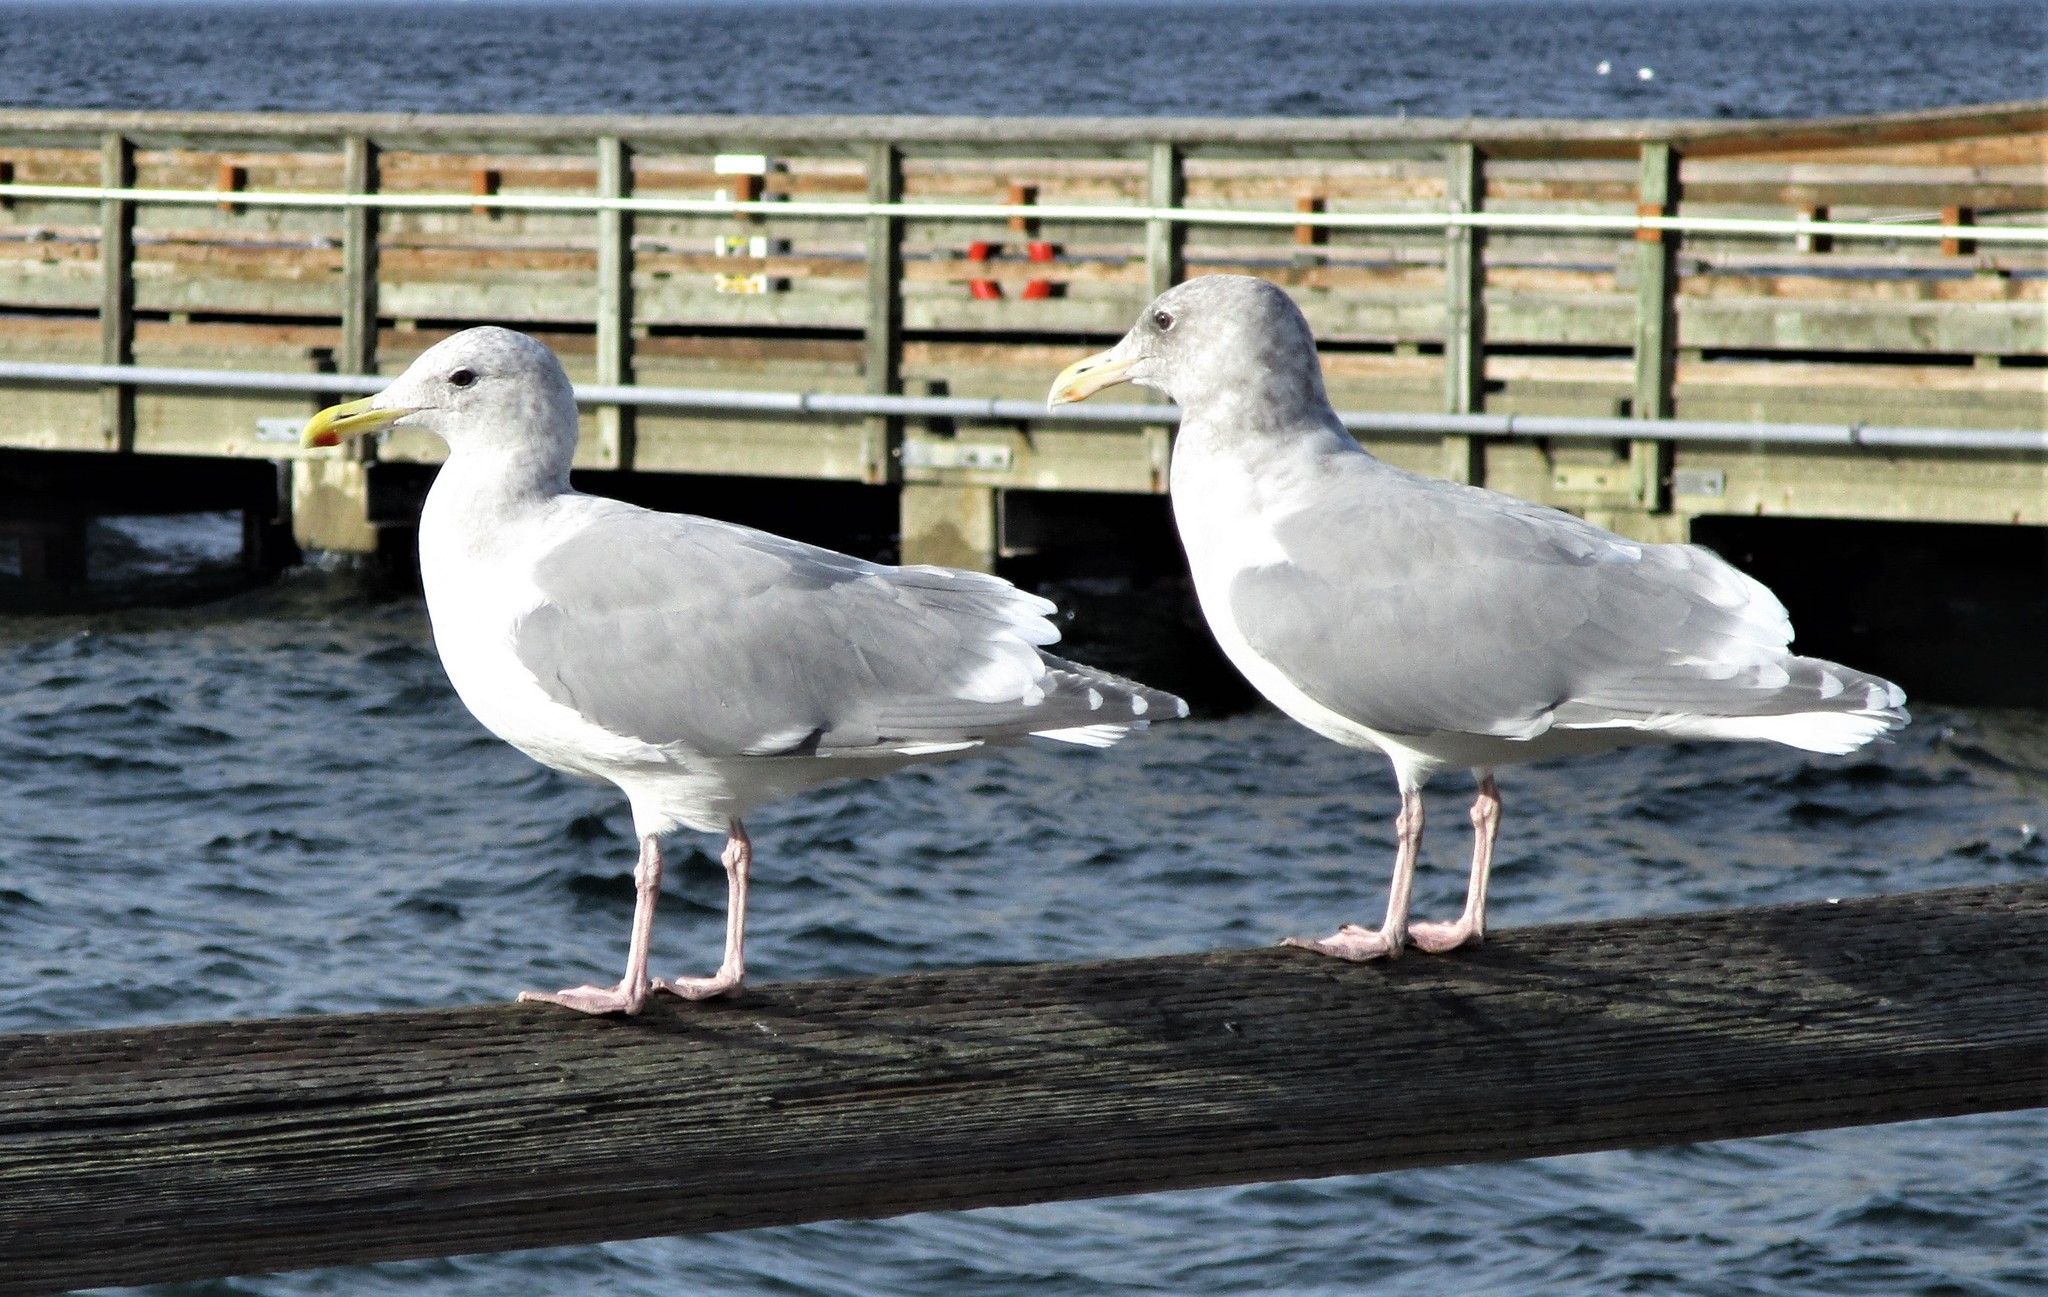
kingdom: Animalia
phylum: Chordata
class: Aves
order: Charadriiformes
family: Laridae
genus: Larus
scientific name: Larus
